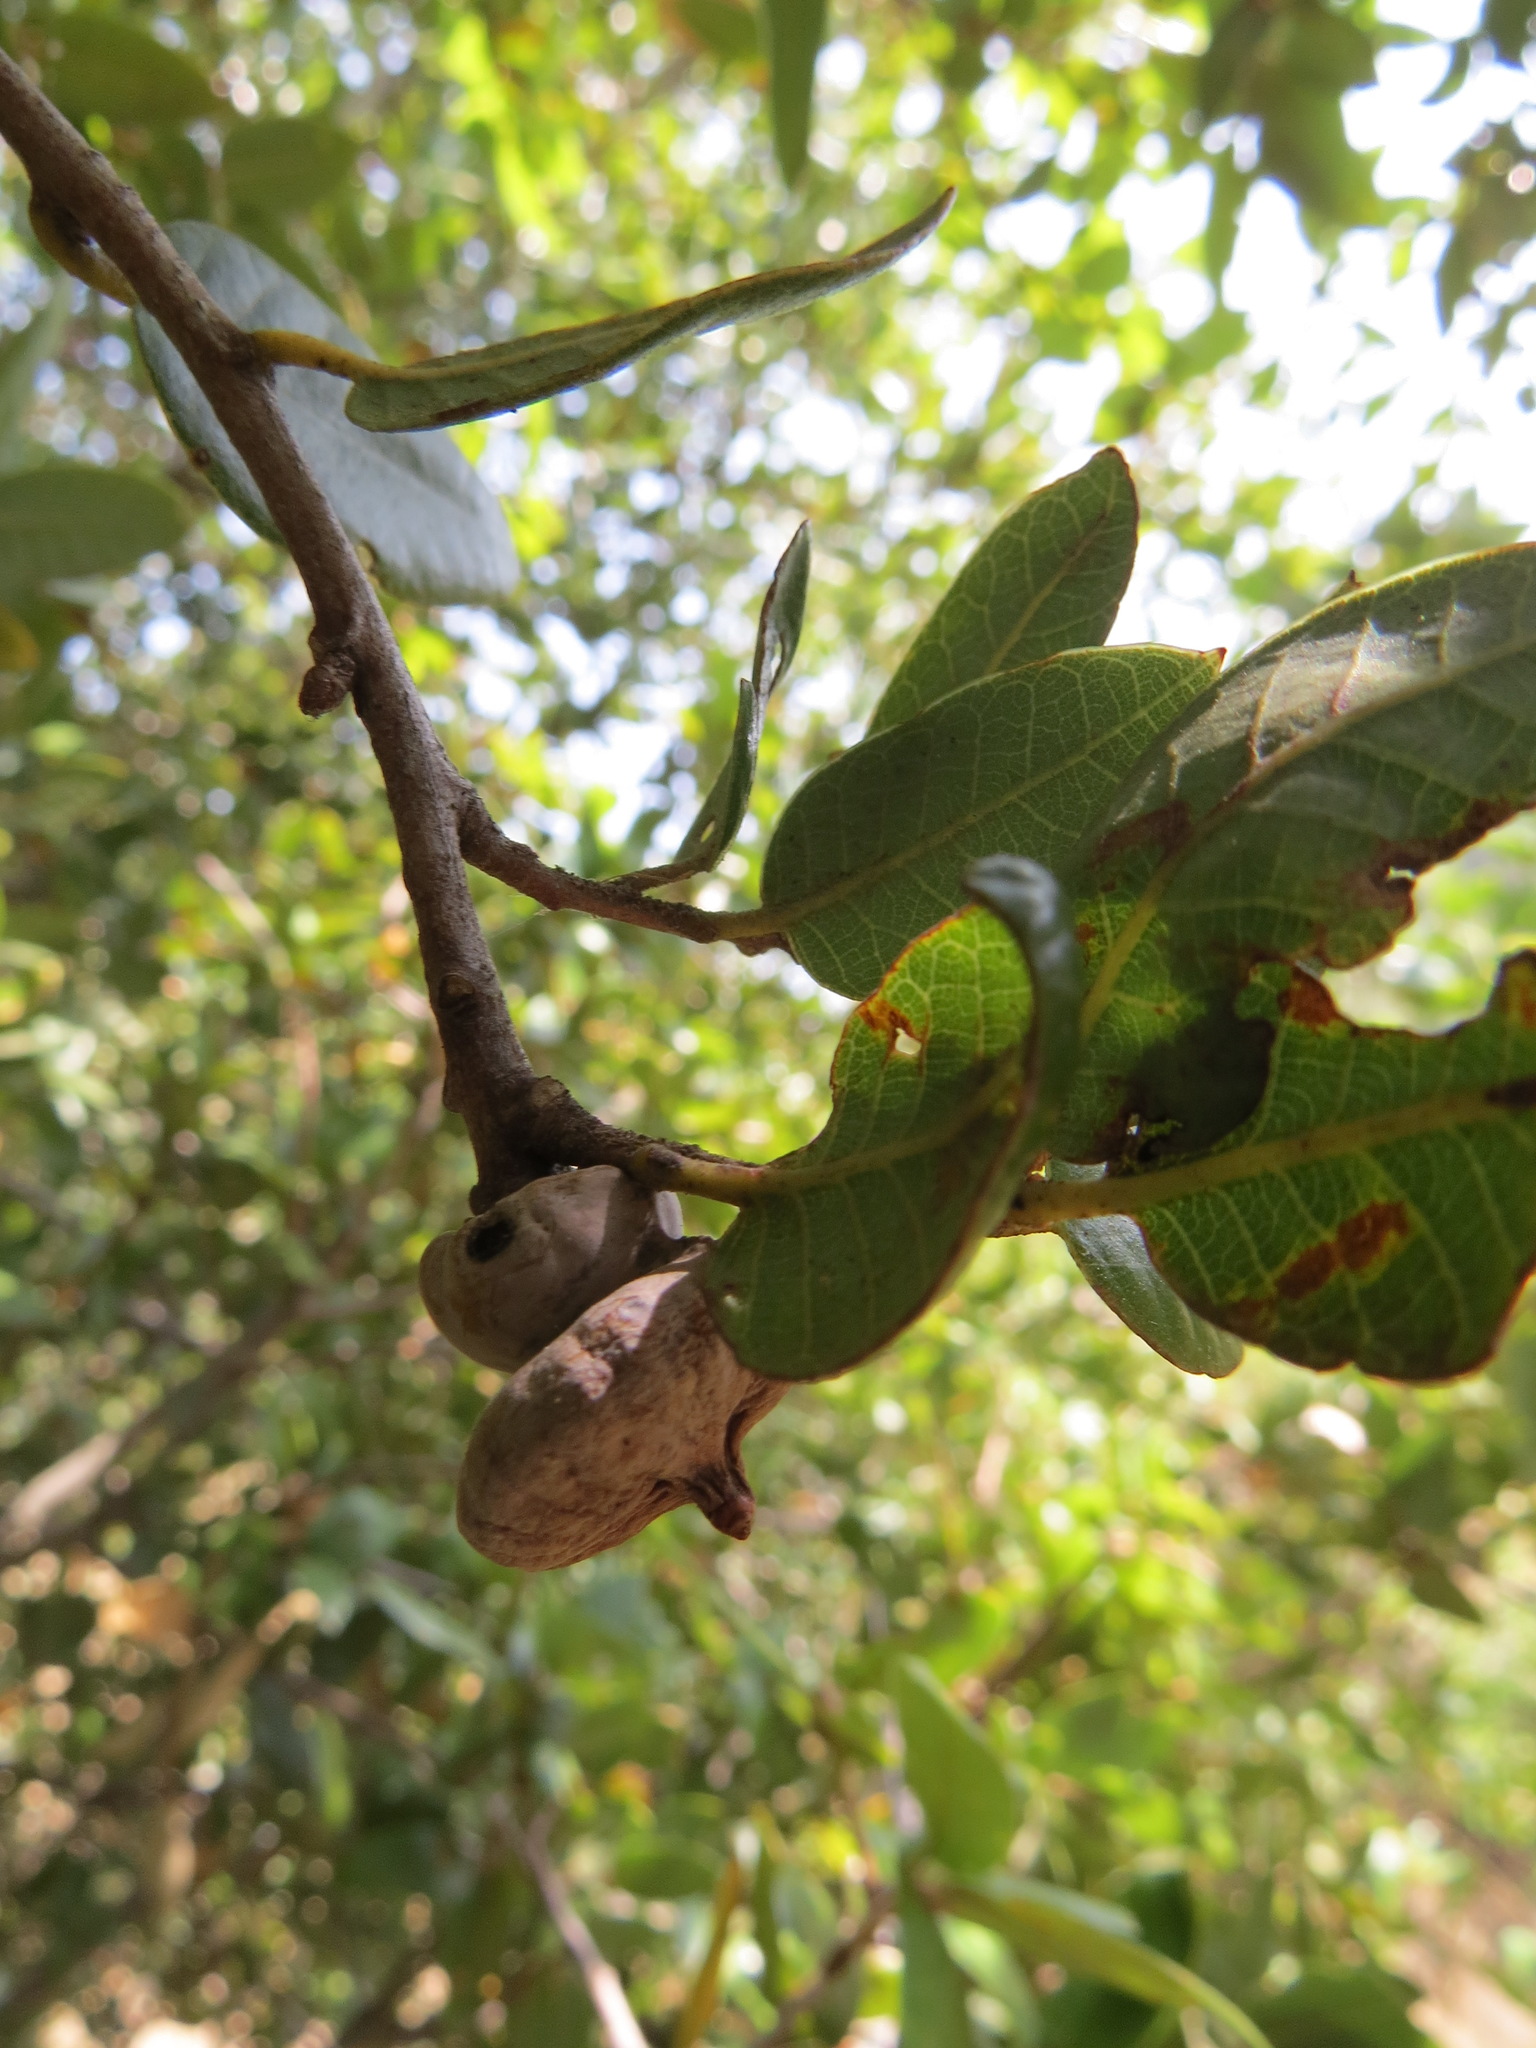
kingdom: Animalia
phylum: Arthropoda
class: Insecta
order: Hymenoptera
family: Cynipidae
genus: Heteroecus
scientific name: Heteroecus
